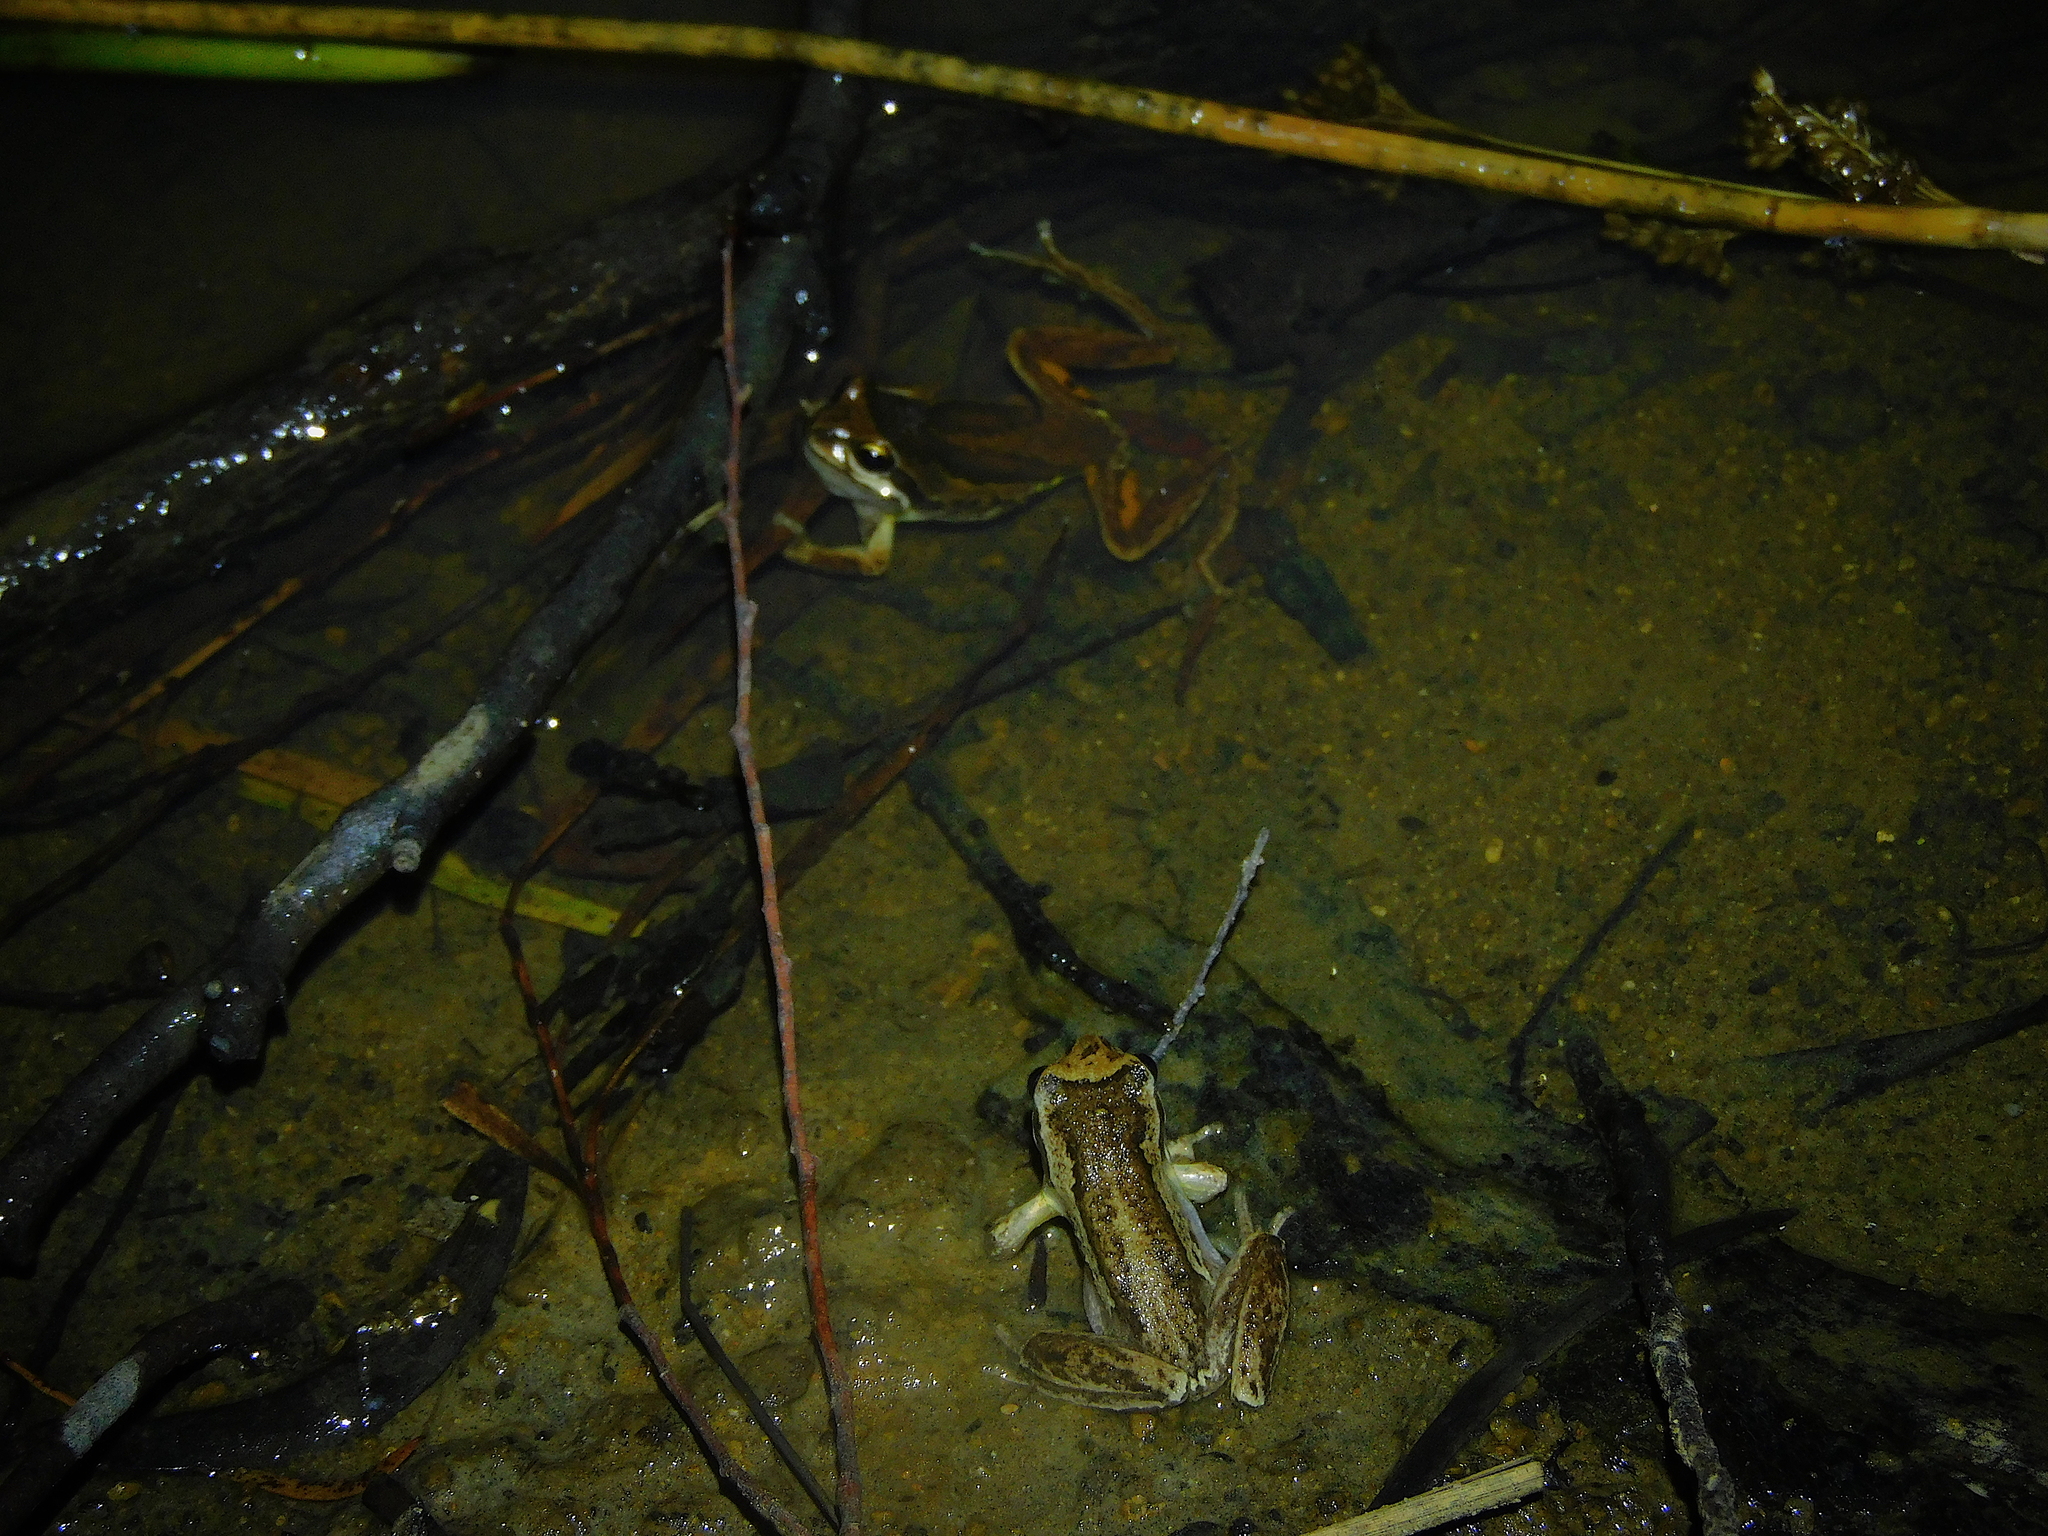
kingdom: Animalia
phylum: Chordata
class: Amphibia
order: Anura
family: Pelodryadidae
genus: Litoria
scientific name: Litoria ewingii
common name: Southern brown tree frog
